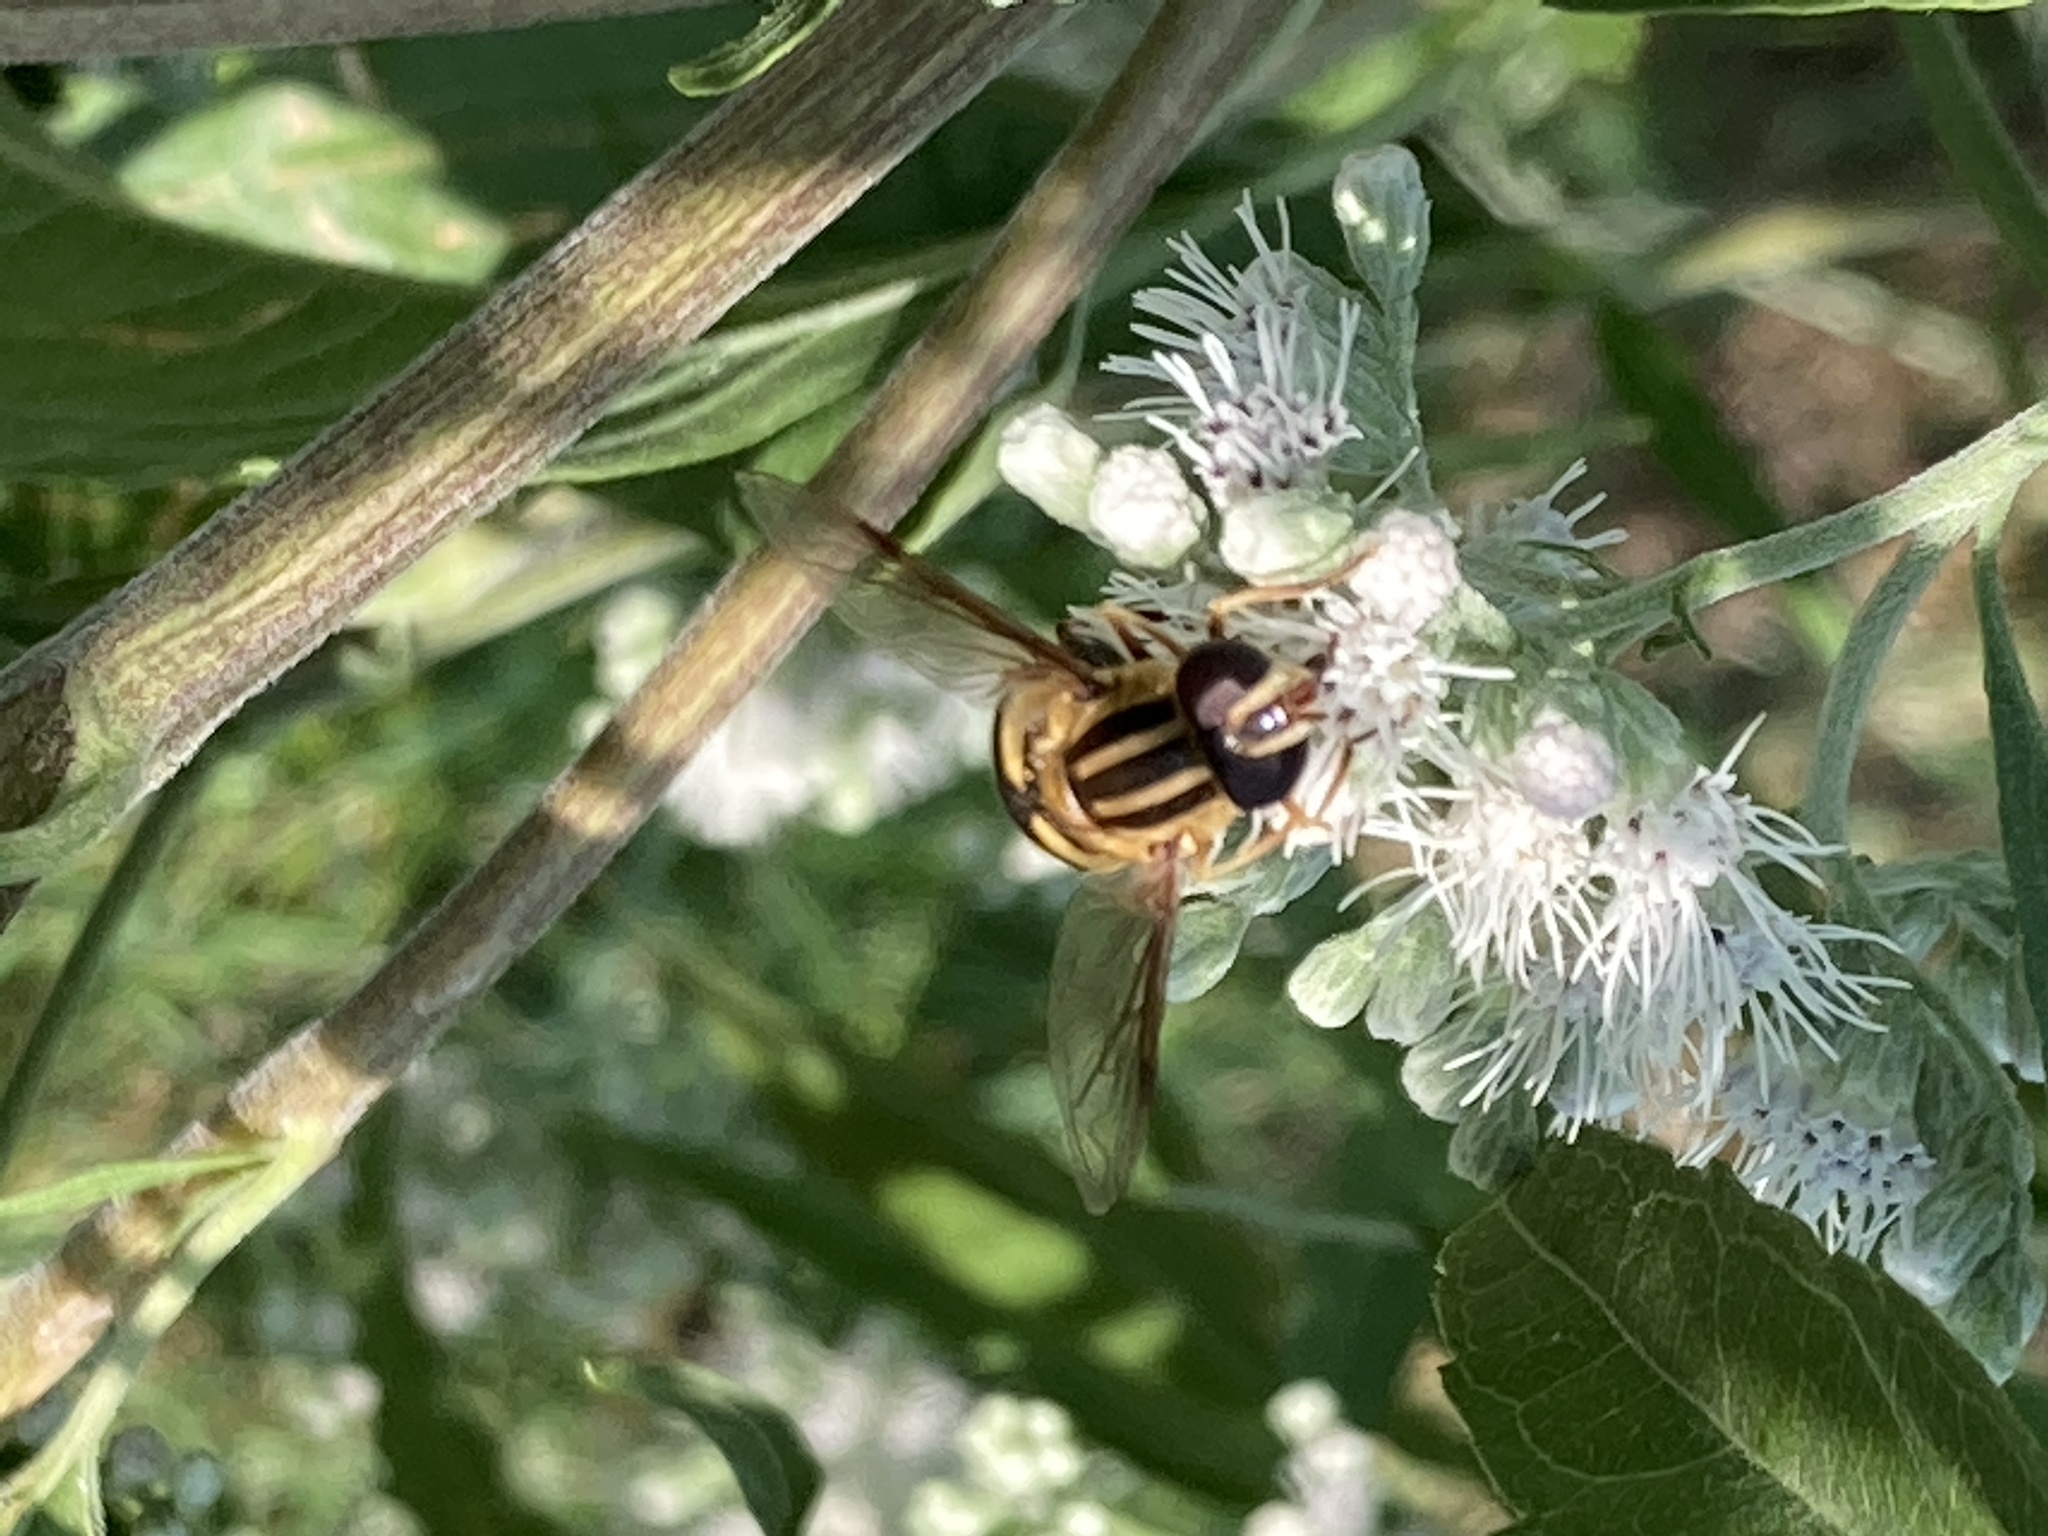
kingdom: Animalia
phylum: Arthropoda
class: Insecta
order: Diptera
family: Syrphidae
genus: Helophilus
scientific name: Helophilus fasciatus
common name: Narrow-headed marsh fly
